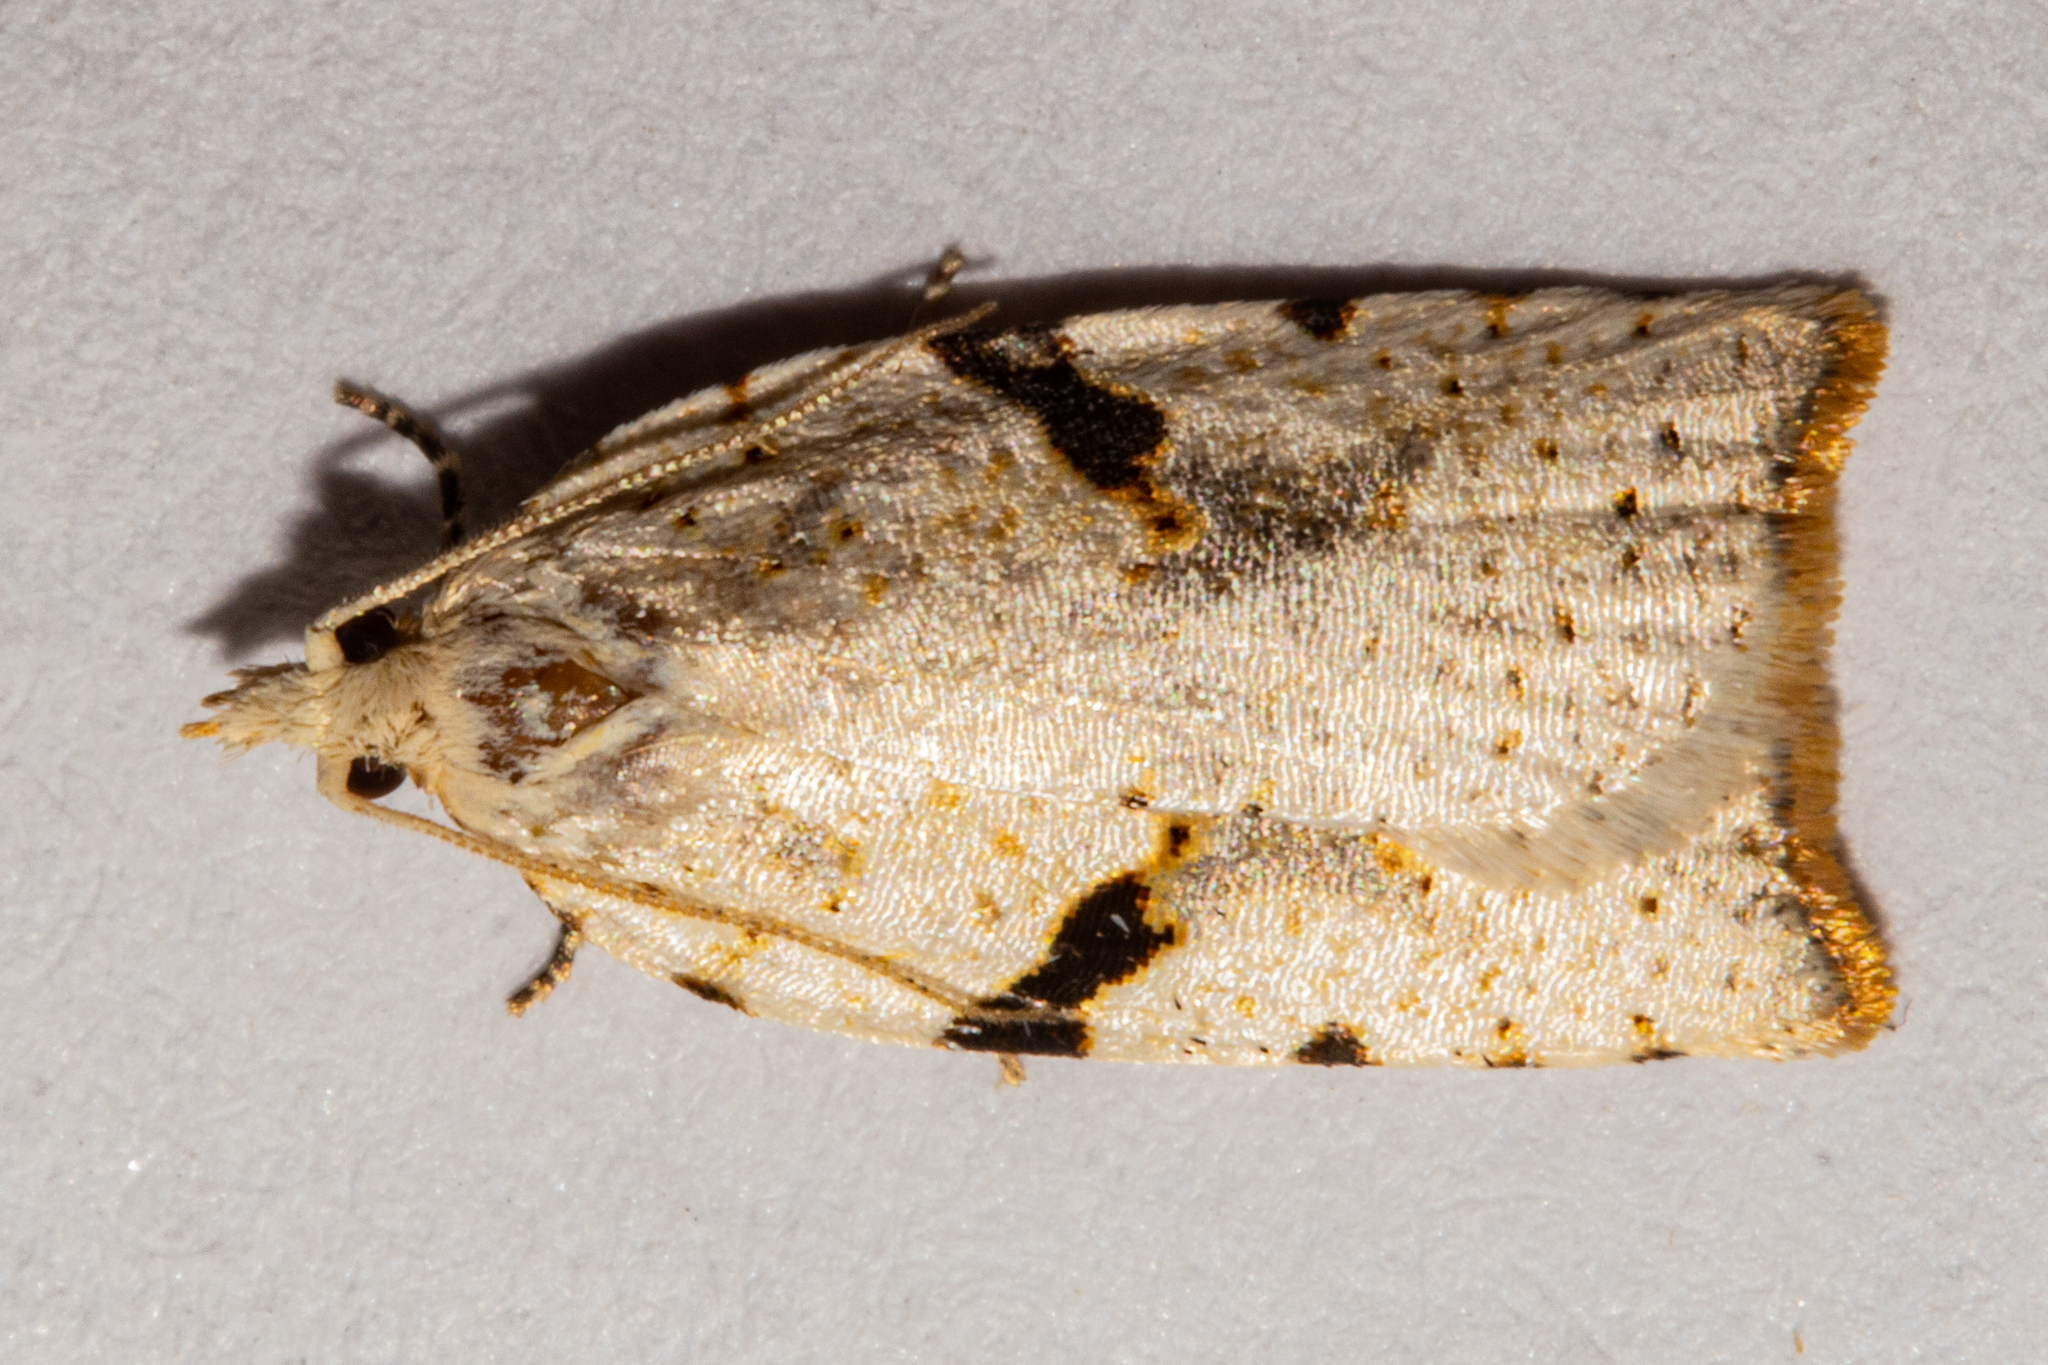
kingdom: Animalia
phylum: Arthropoda
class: Insecta
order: Lepidoptera
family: Tortricidae
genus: Leucotenes
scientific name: Leucotenes coprosmae
